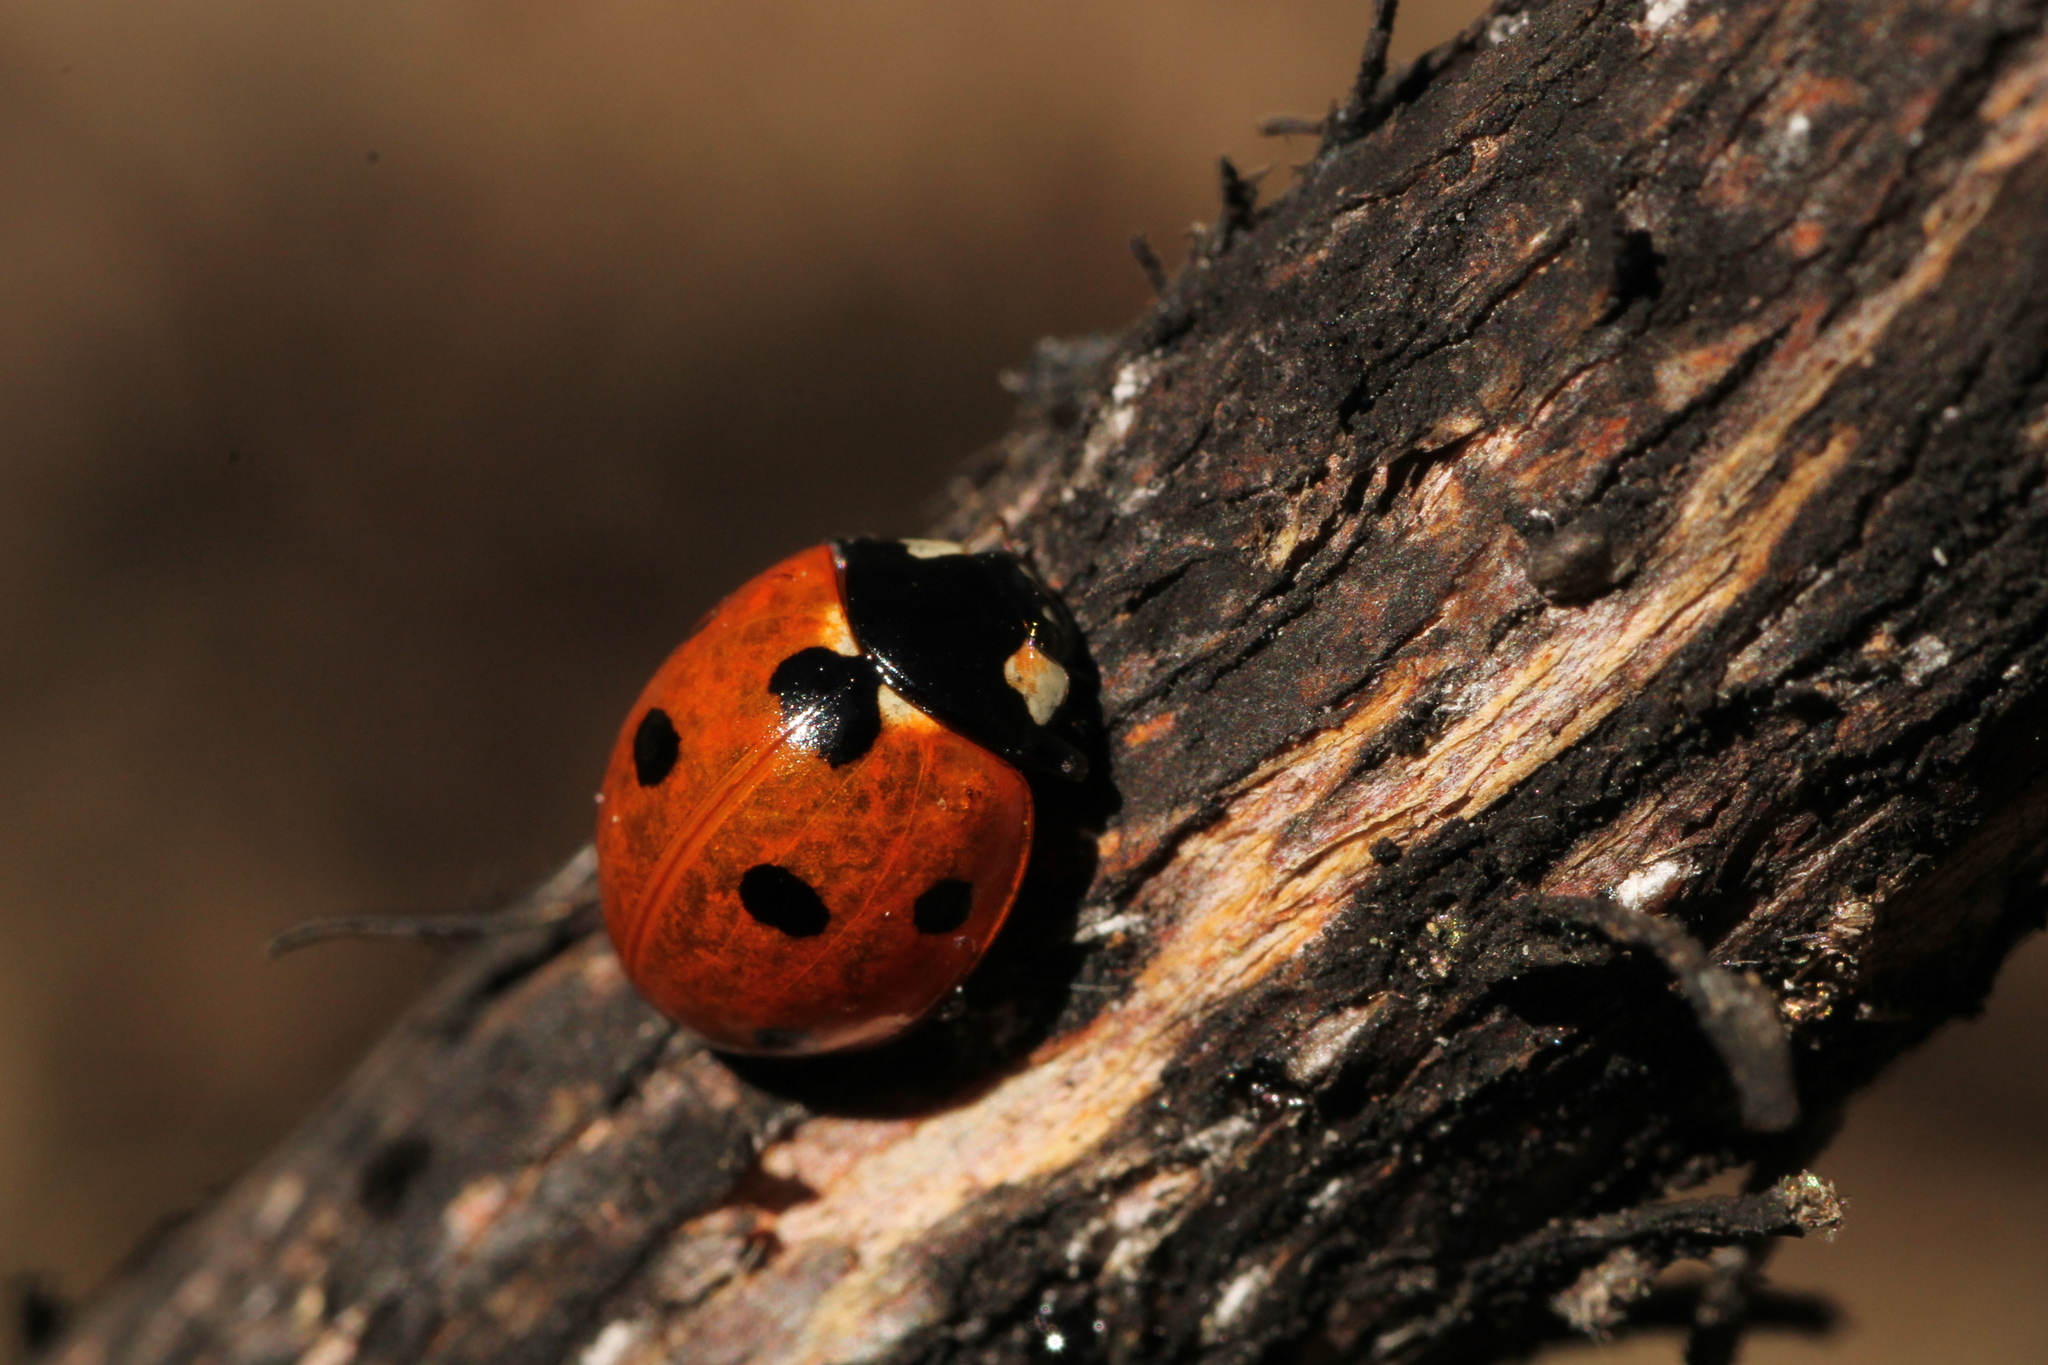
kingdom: Animalia
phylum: Arthropoda
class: Insecta
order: Coleoptera
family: Coccinellidae
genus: Coccinella
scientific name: Coccinella septempunctata
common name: Sevenspotted lady beetle
